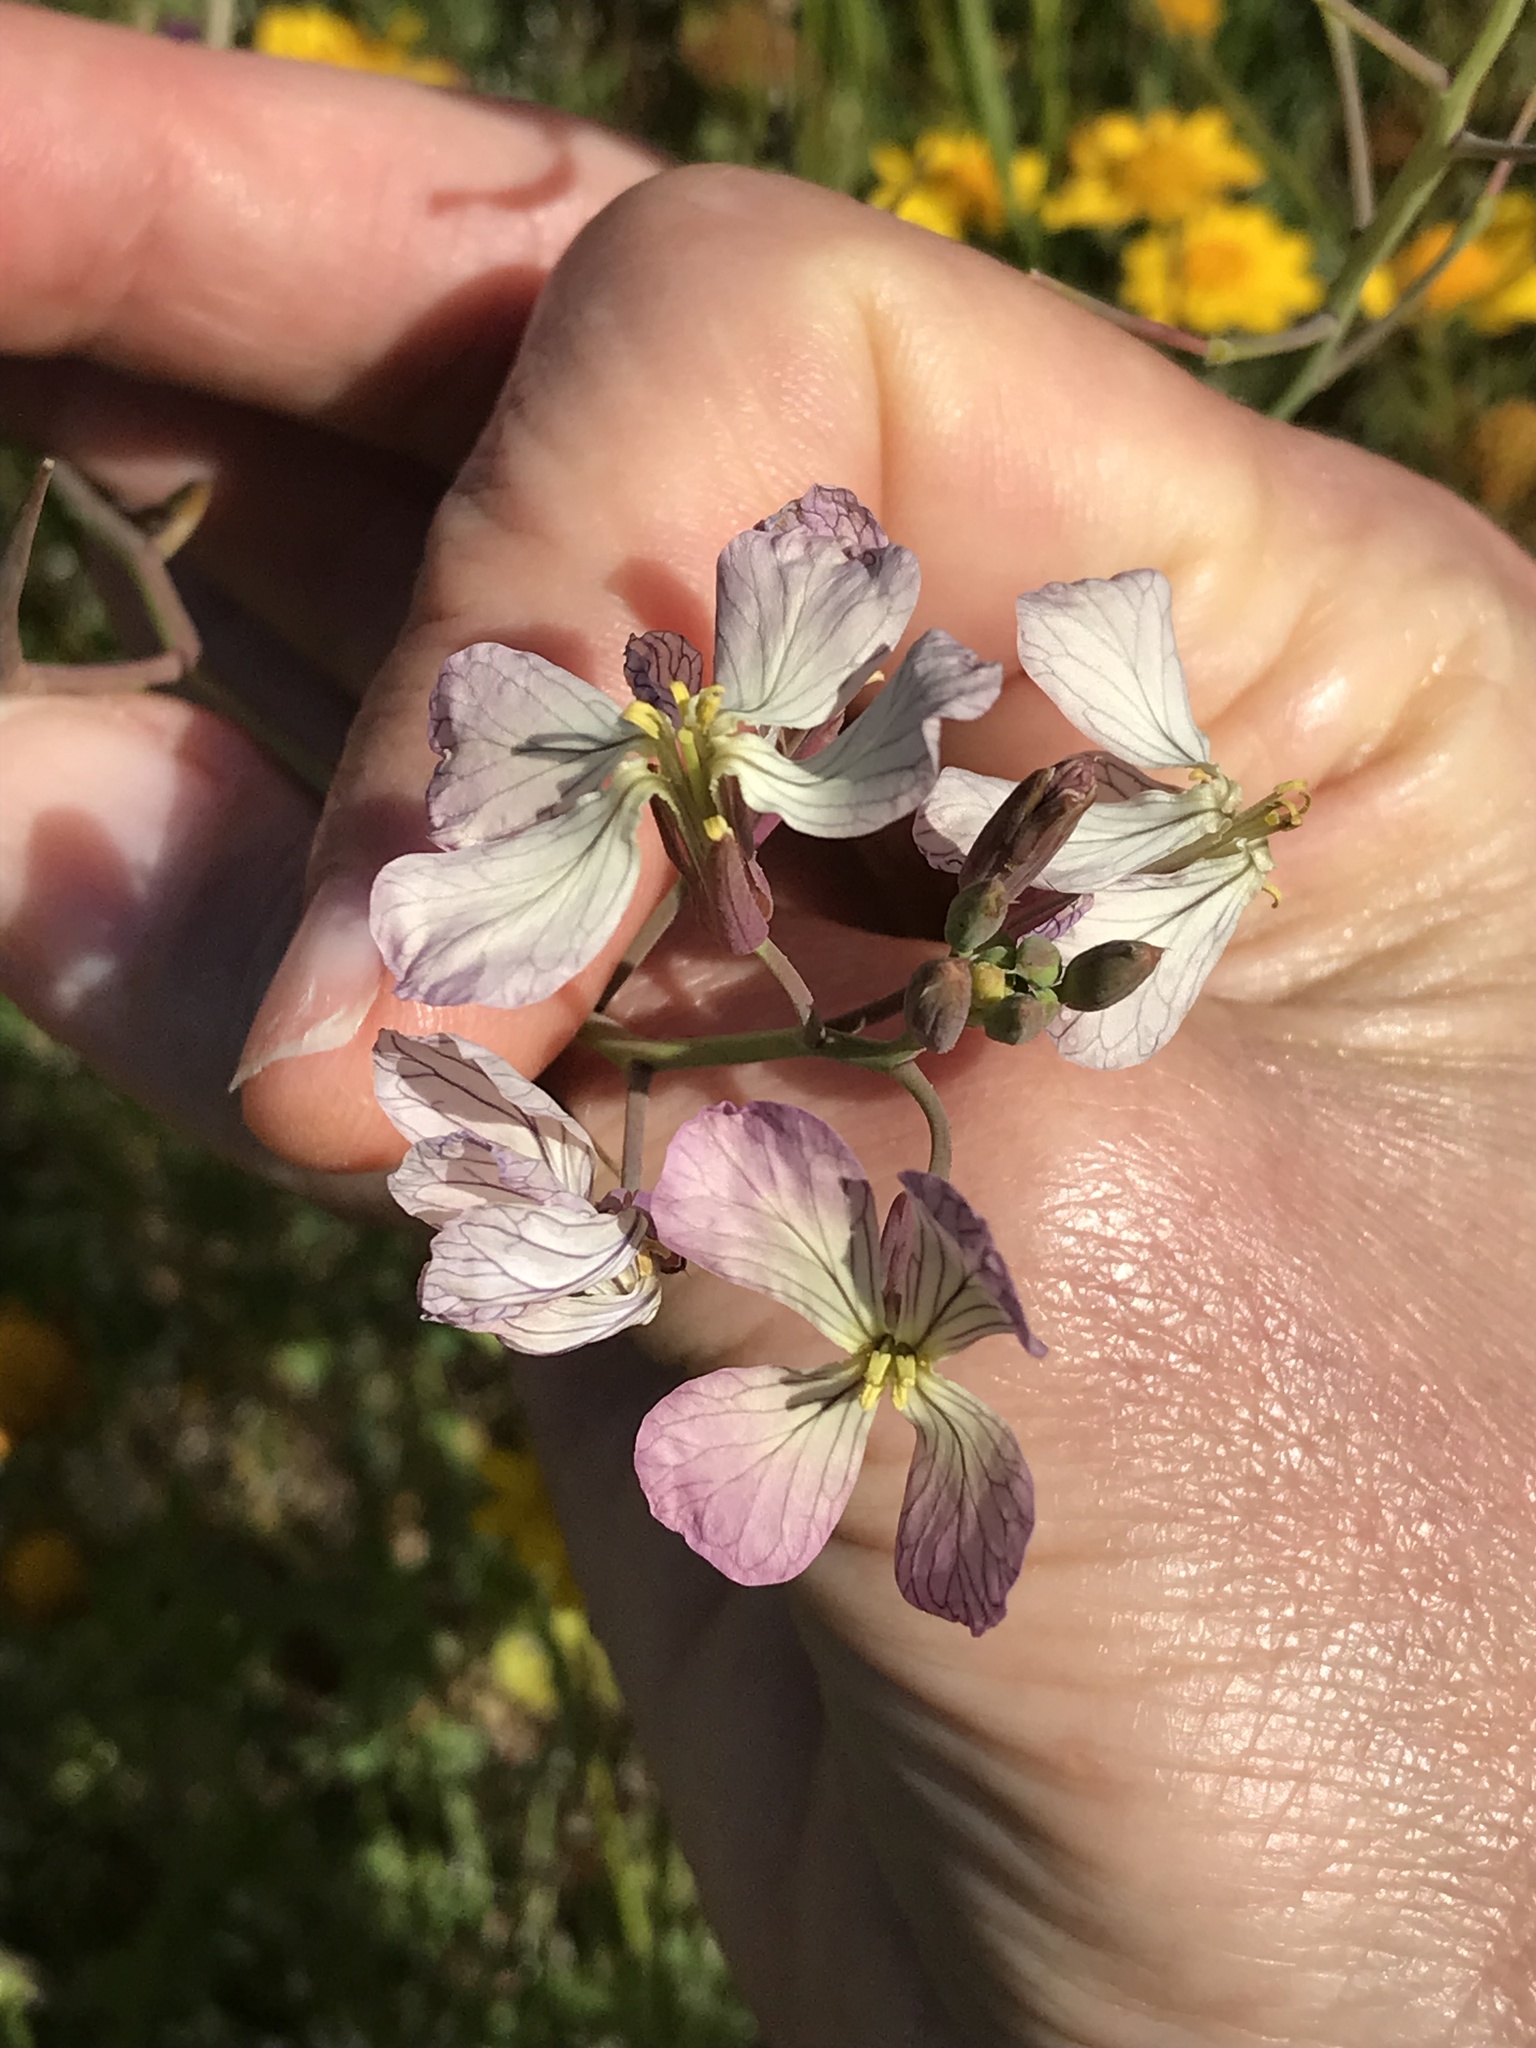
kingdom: Plantae
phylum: Tracheophyta
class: Magnoliopsida
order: Brassicales
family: Brassicaceae
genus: Raphanus
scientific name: Raphanus sativus
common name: Cultivated radish
